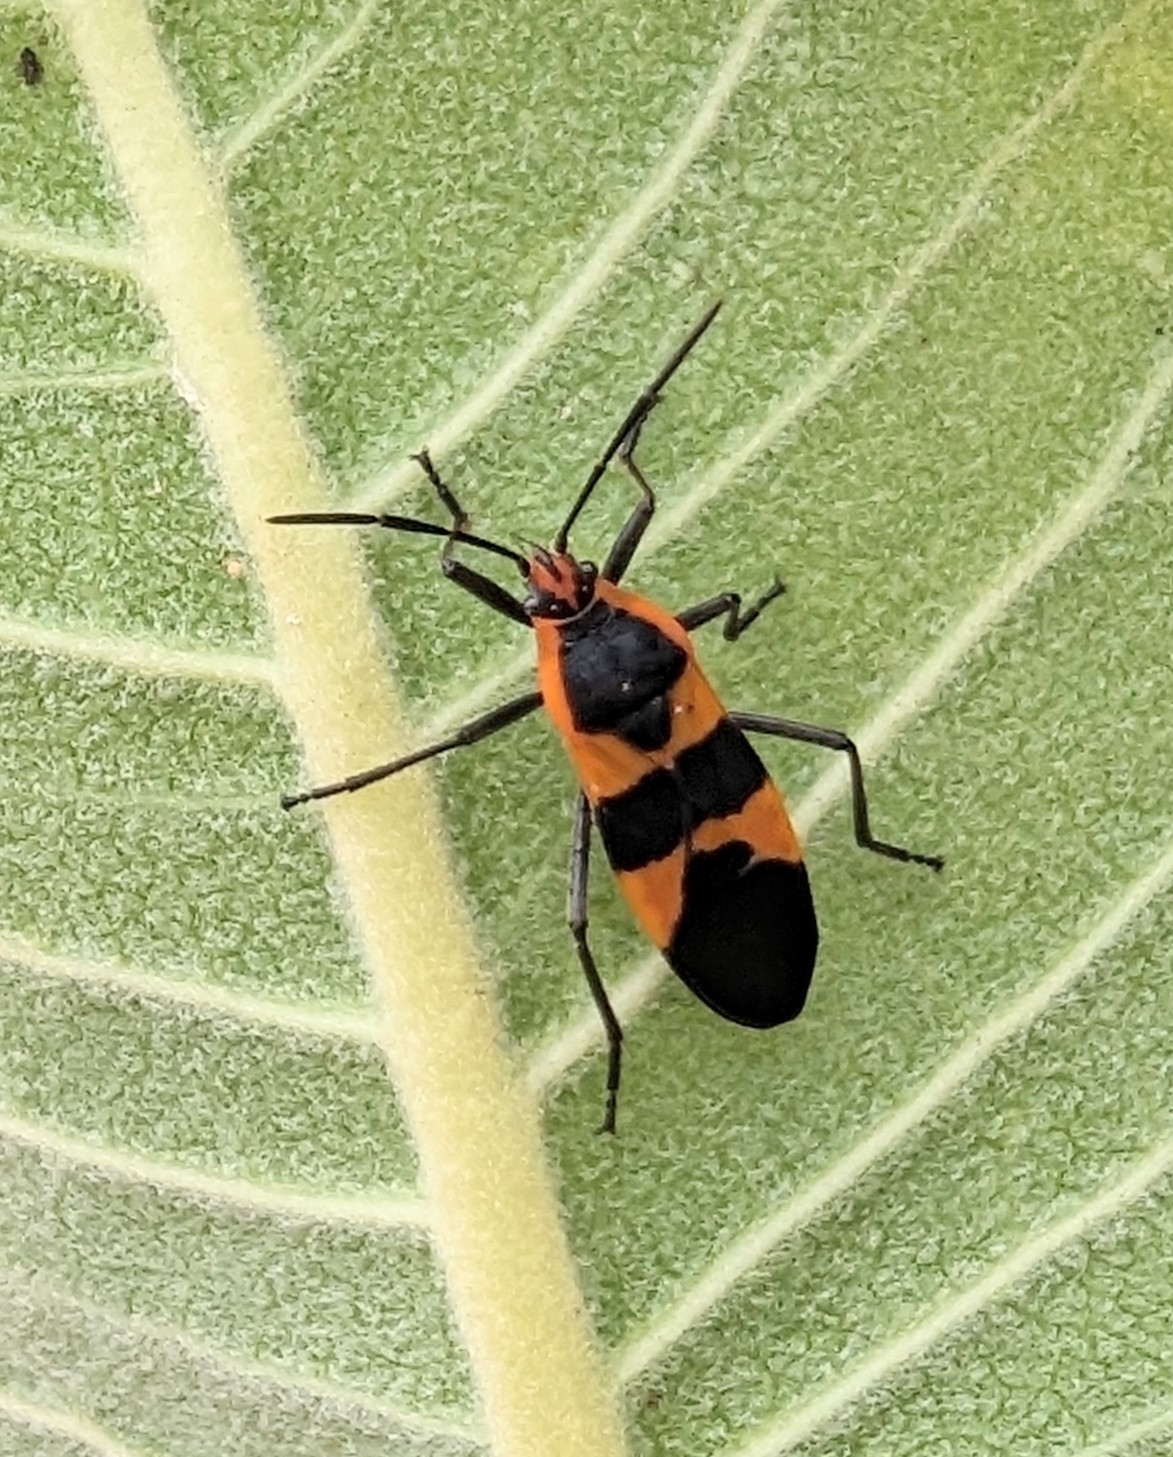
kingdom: Animalia
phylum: Arthropoda
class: Insecta
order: Hemiptera
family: Lygaeidae
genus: Oncopeltus
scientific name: Oncopeltus fasciatus
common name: Large milkweed bug
